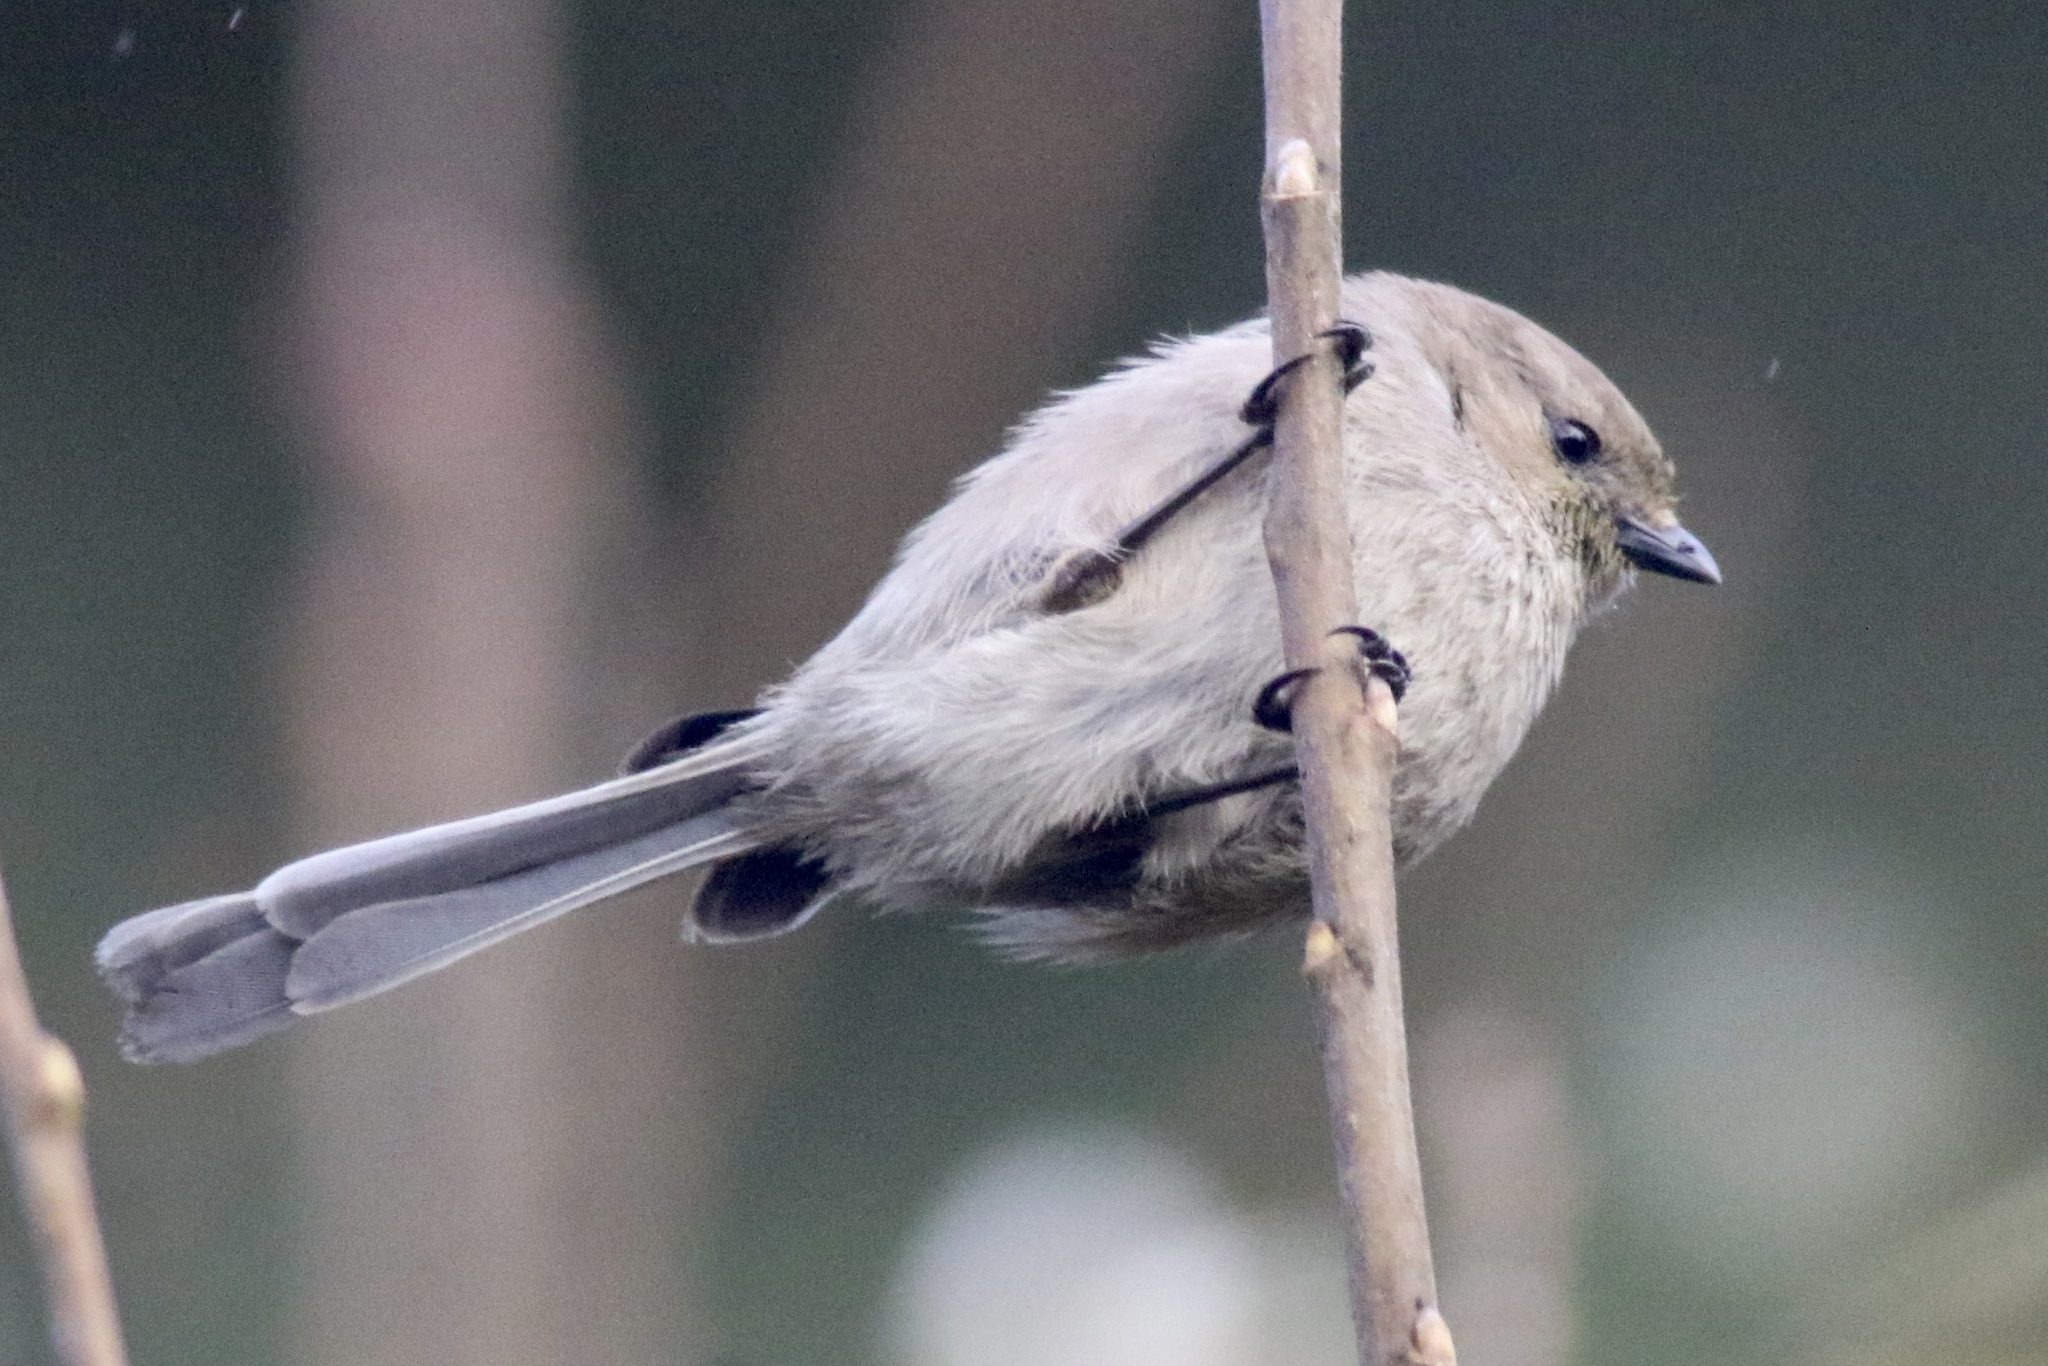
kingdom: Animalia
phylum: Chordata
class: Aves
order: Passeriformes
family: Aegithalidae
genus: Psaltriparus
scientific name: Psaltriparus minimus
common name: American bushtit
